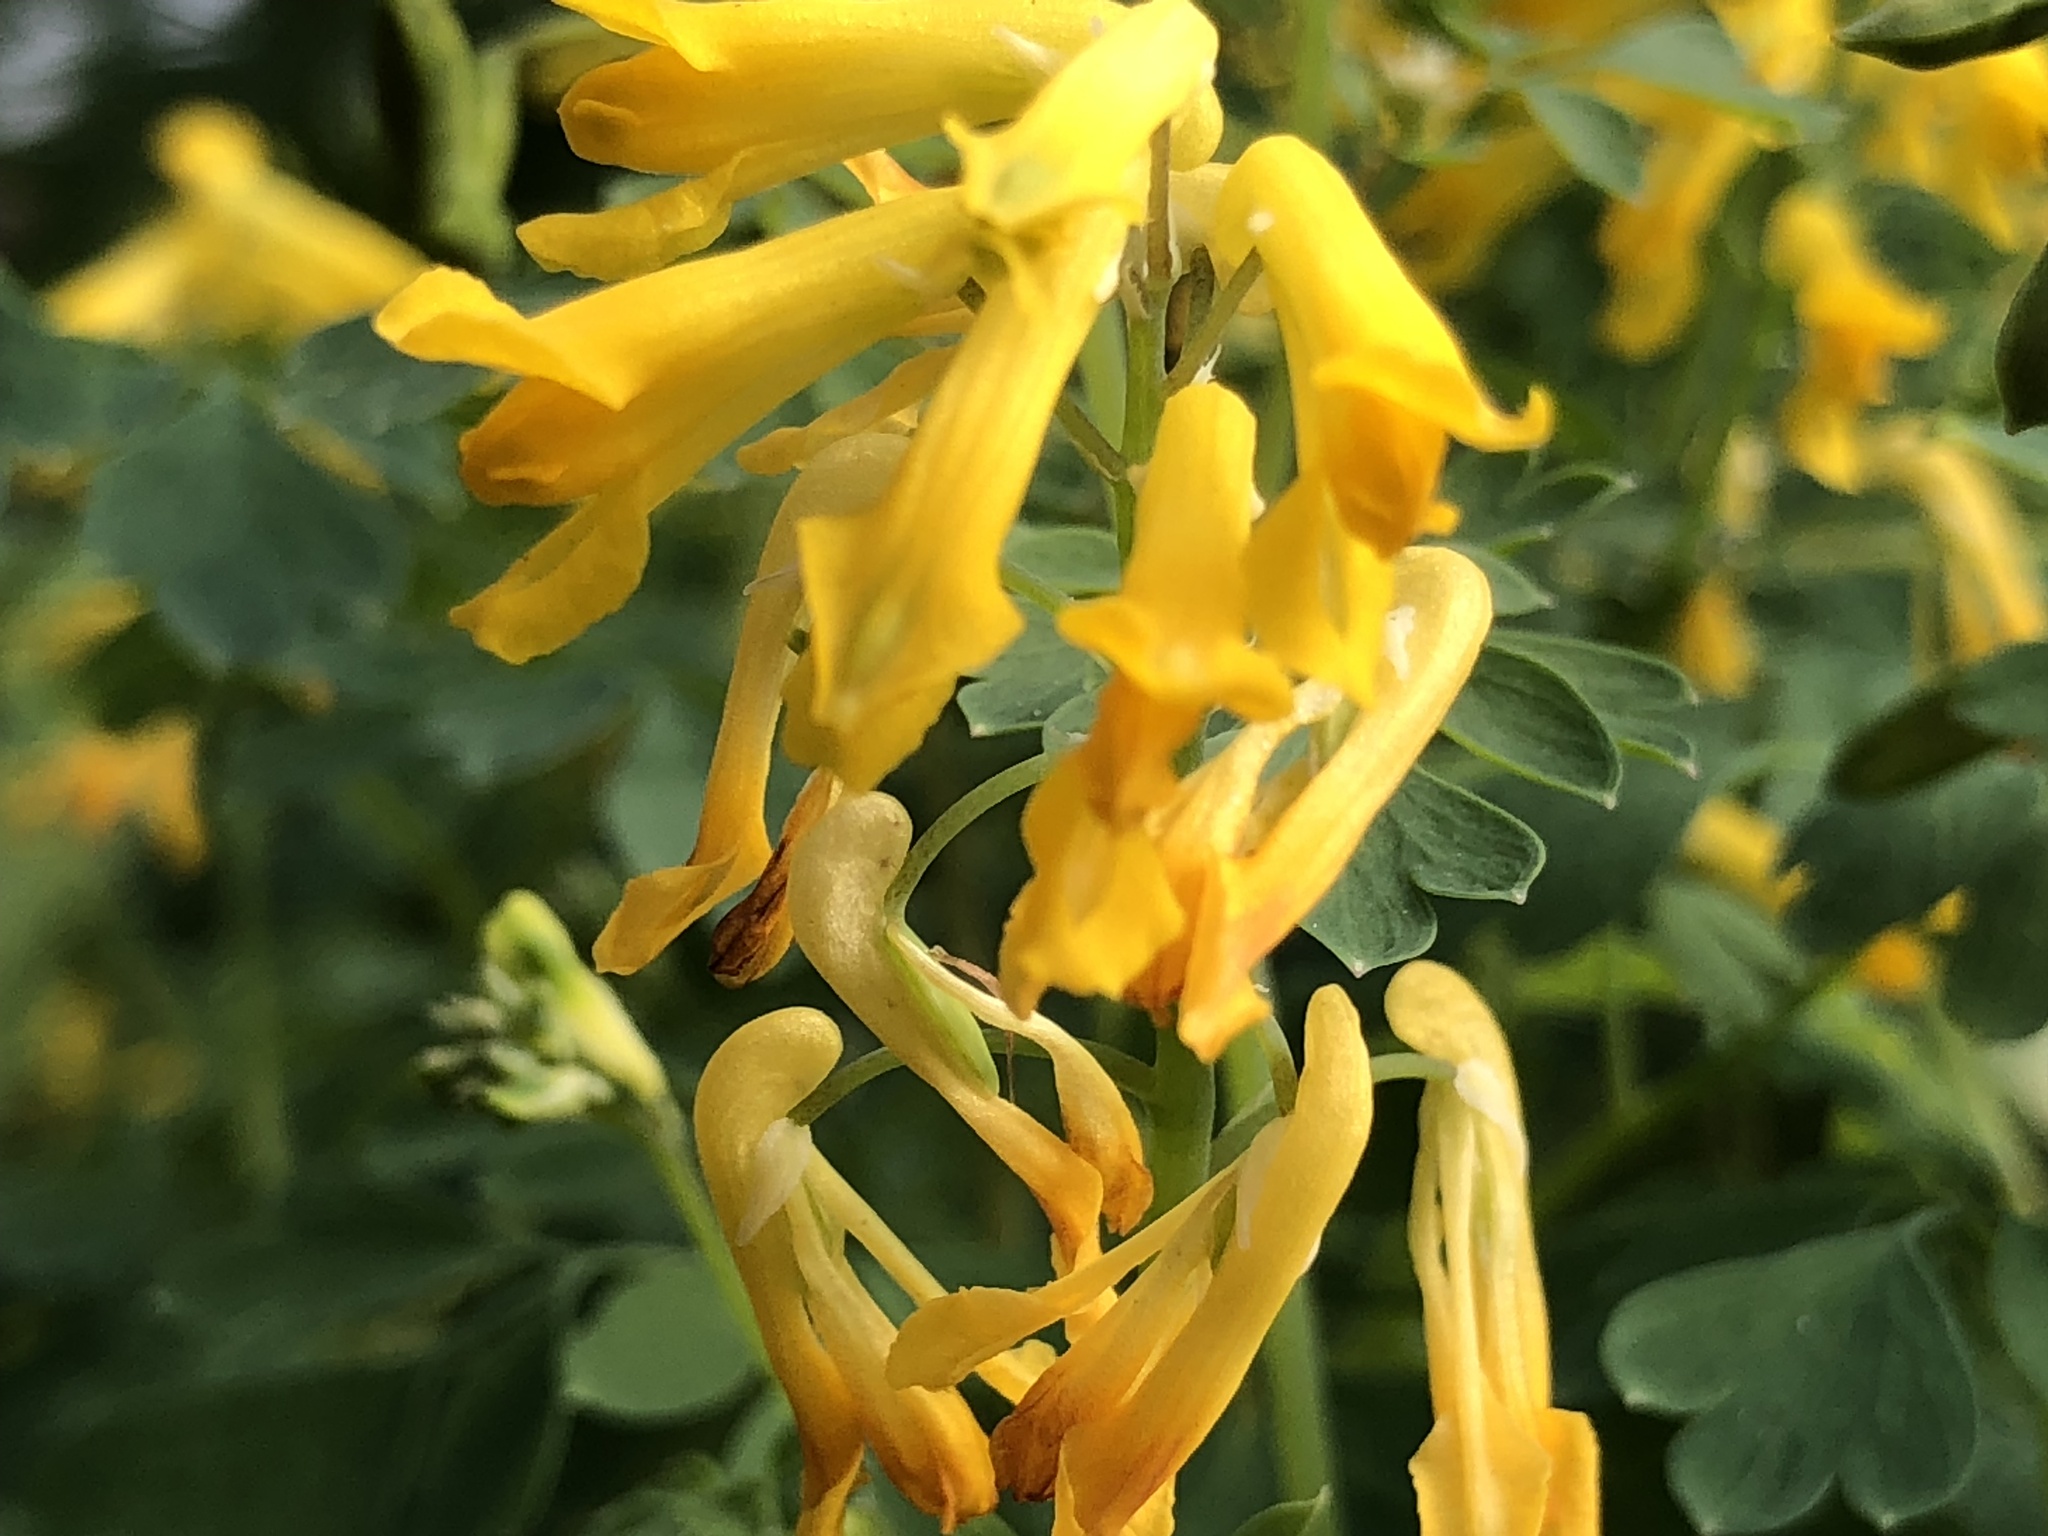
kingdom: Plantae
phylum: Tracheophyta
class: Magnoliopsida
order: Ranunculales
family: Papaveraceae
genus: Pseudofumaria
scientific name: Pseudofumaria lutea
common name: Yellow corydalis
